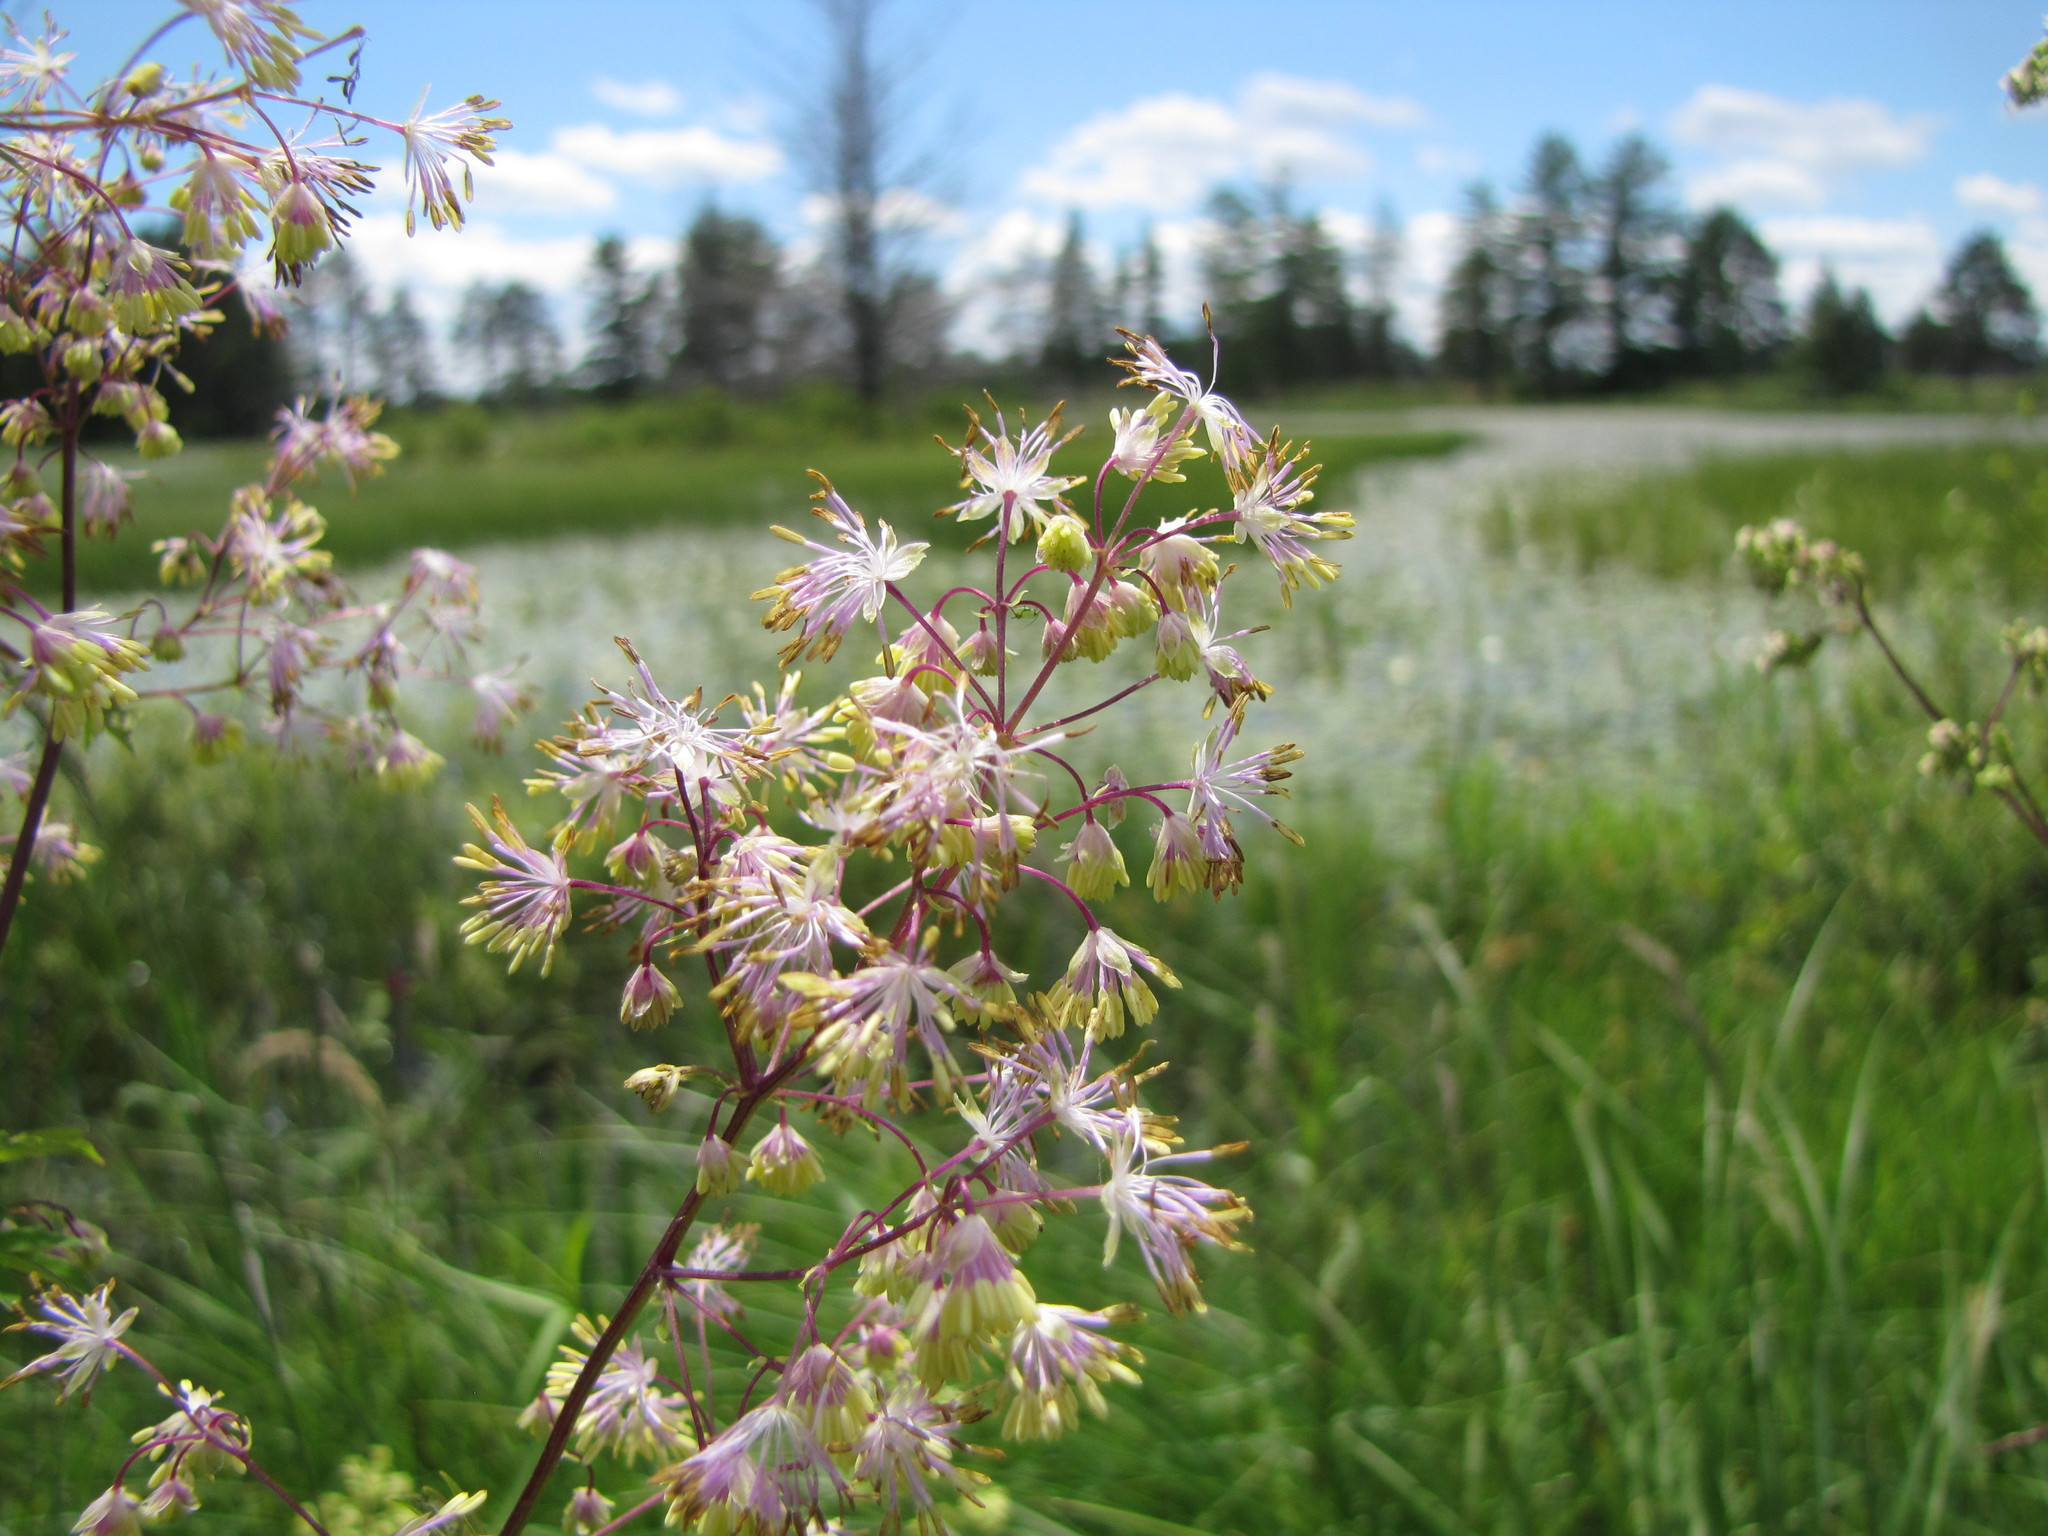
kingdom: Plantae
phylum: Tracheophyta
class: Magnoliopsida
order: Ranunculales
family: Ranunculaceae
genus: Thalictrum
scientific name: Thalictrum dasycarpum
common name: Purple meadow-rue
